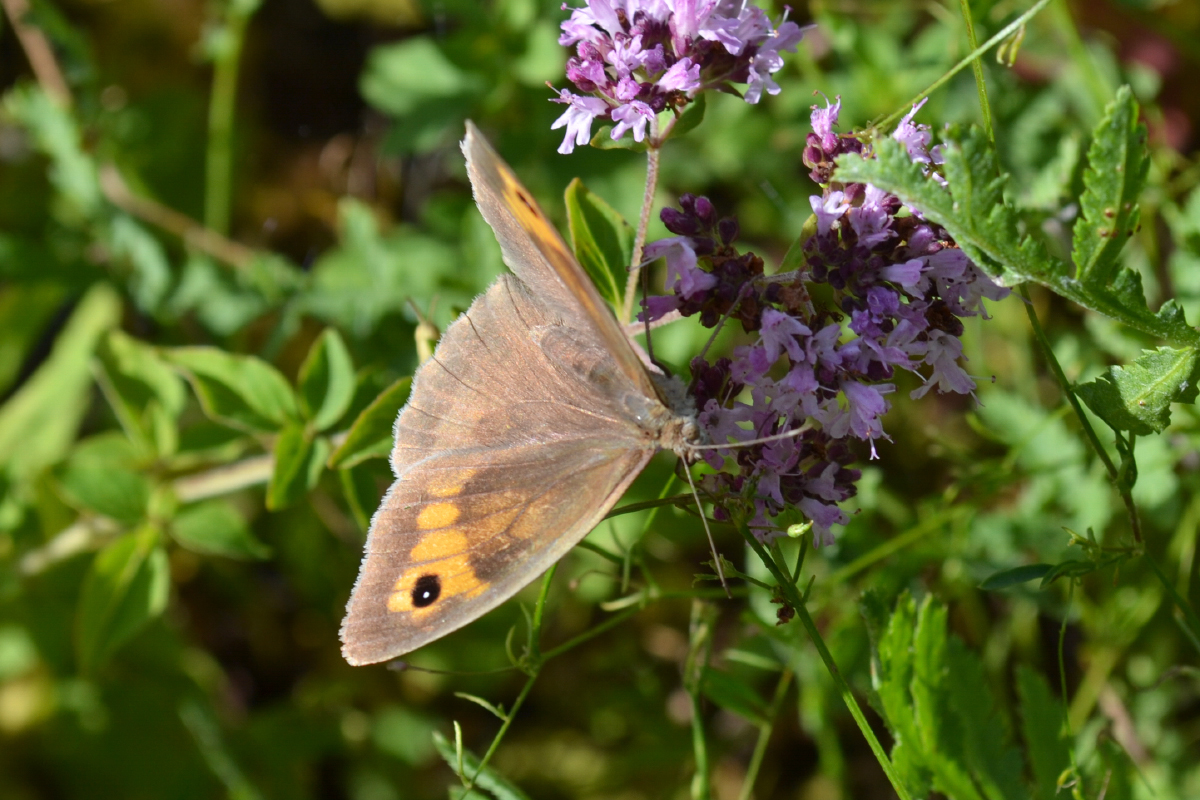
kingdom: Animalia
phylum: Arthropoda
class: Insecta
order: Lepidoptera
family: Nymphalidae
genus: Maniola
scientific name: Maniola jurtina
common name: Meadow brown
